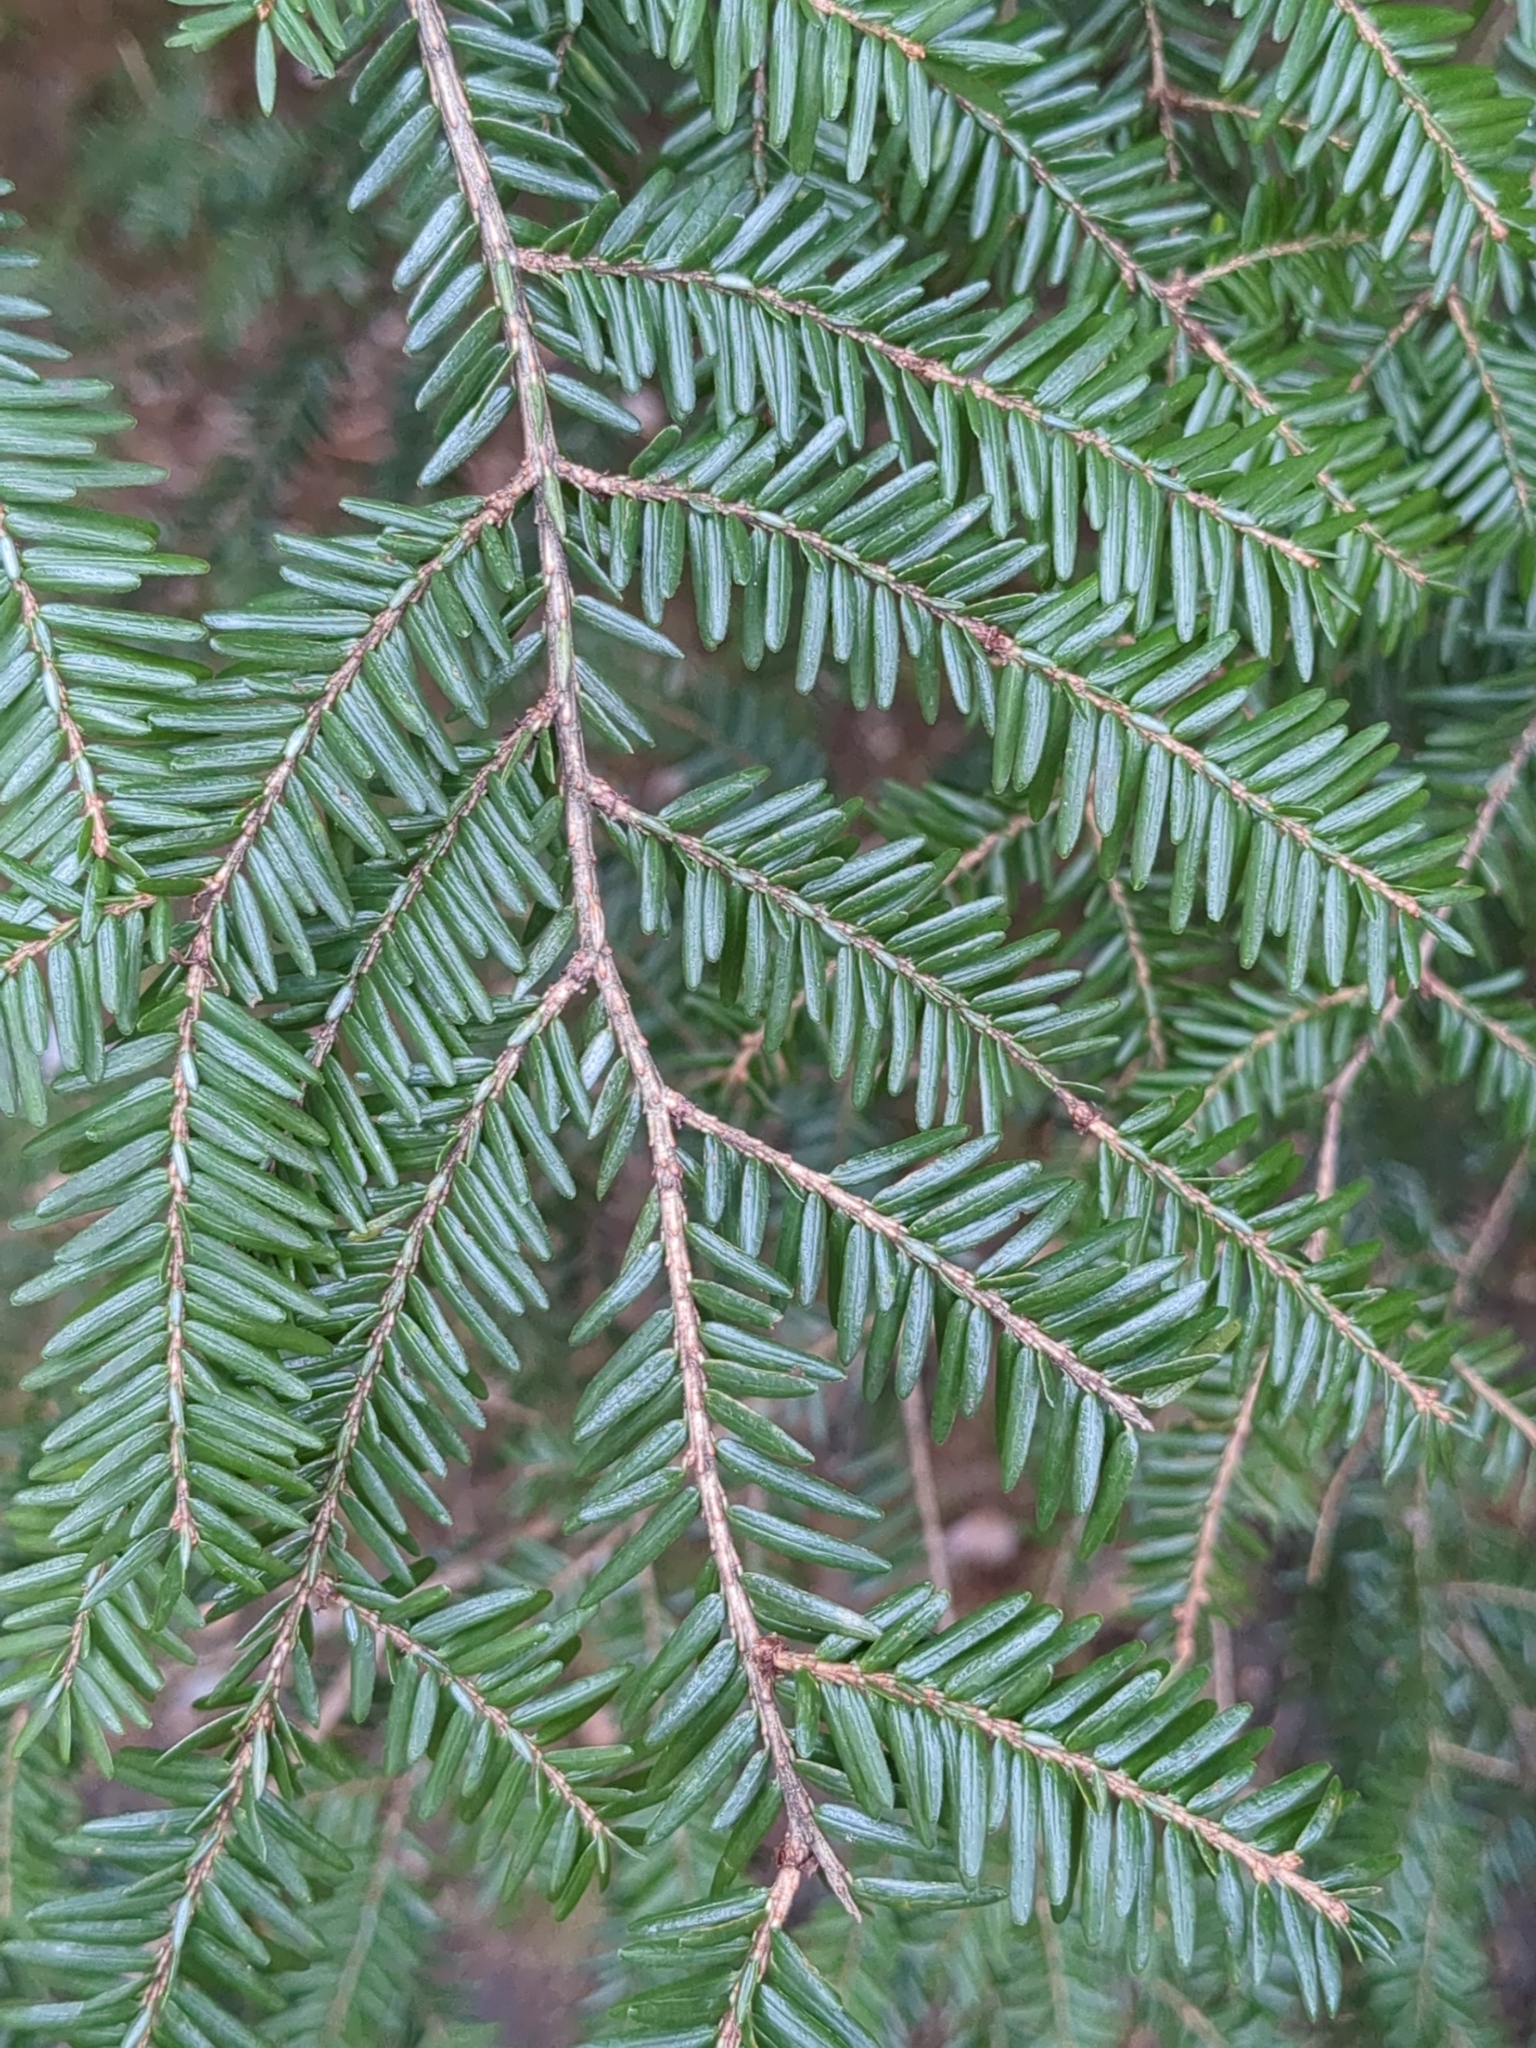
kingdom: Plantae
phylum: Tracheophyta
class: Pinopsida
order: Pinales
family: Pinaceae
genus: Tsuga
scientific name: Tsuga canadensis
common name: Eastern hemlock
